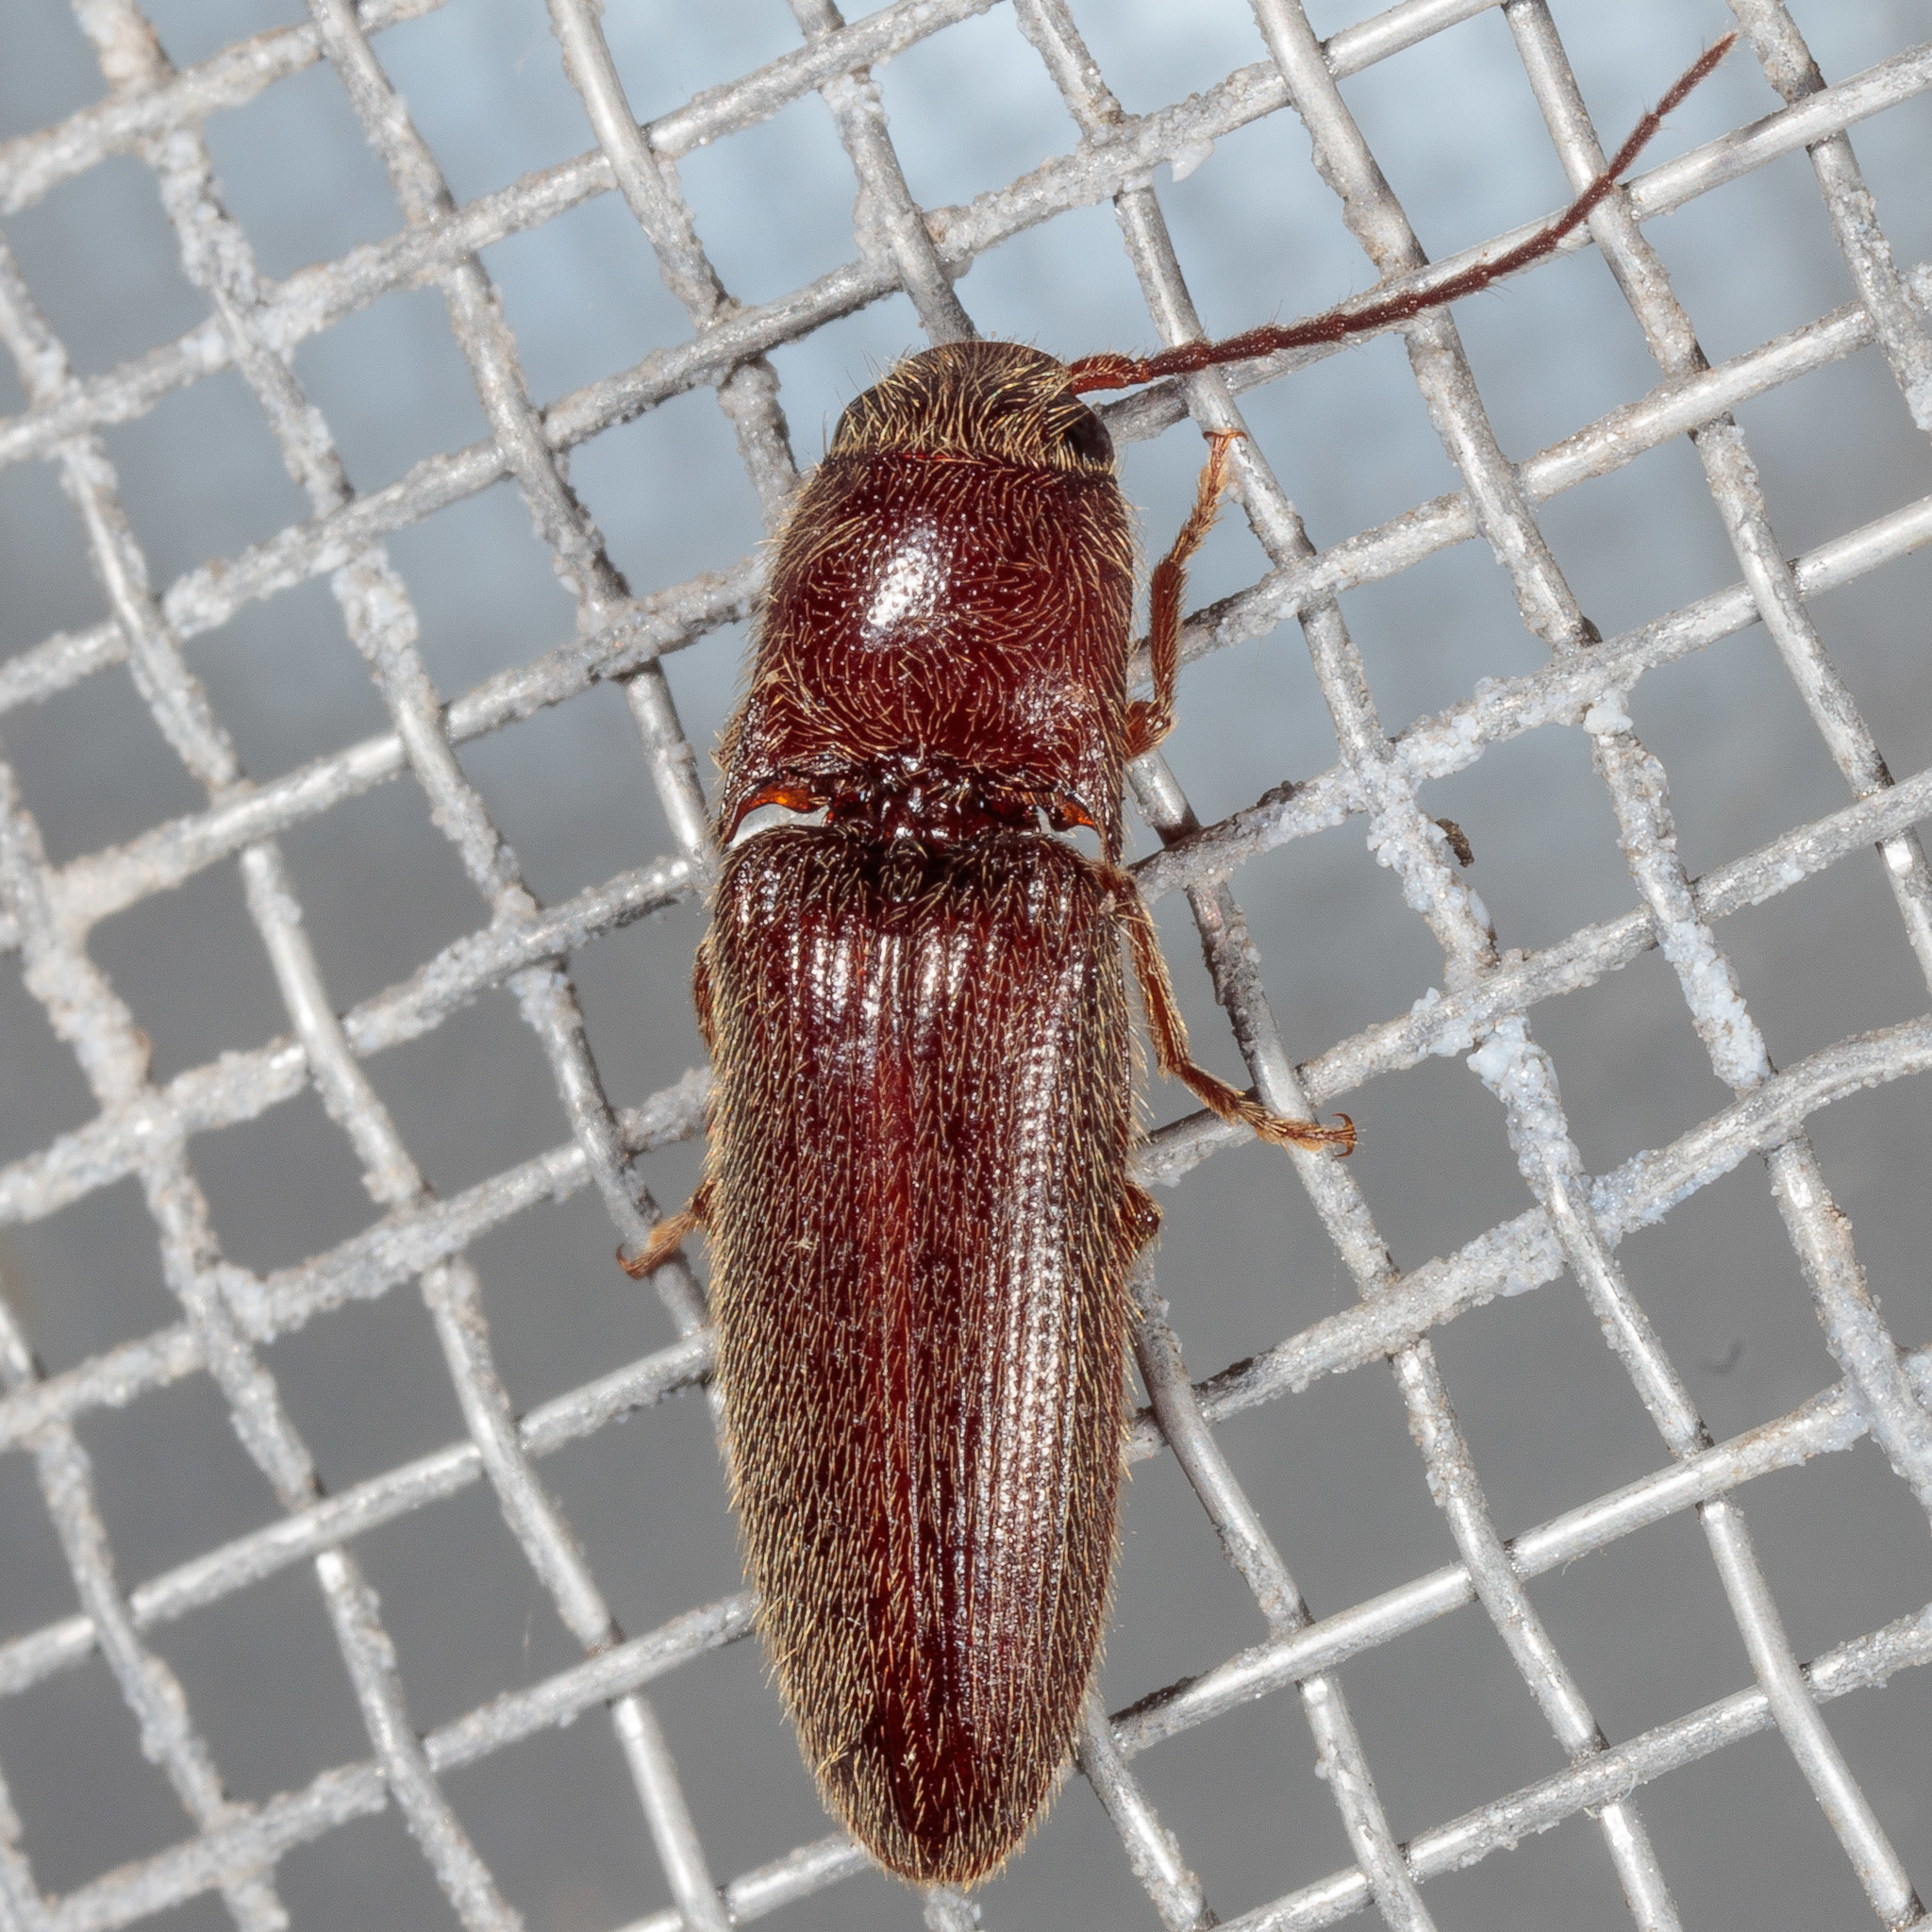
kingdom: Animalia
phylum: Arthropoda
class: Insecta
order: Coleoptera
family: Elateridae
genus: Dipropus
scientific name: Dipropus
